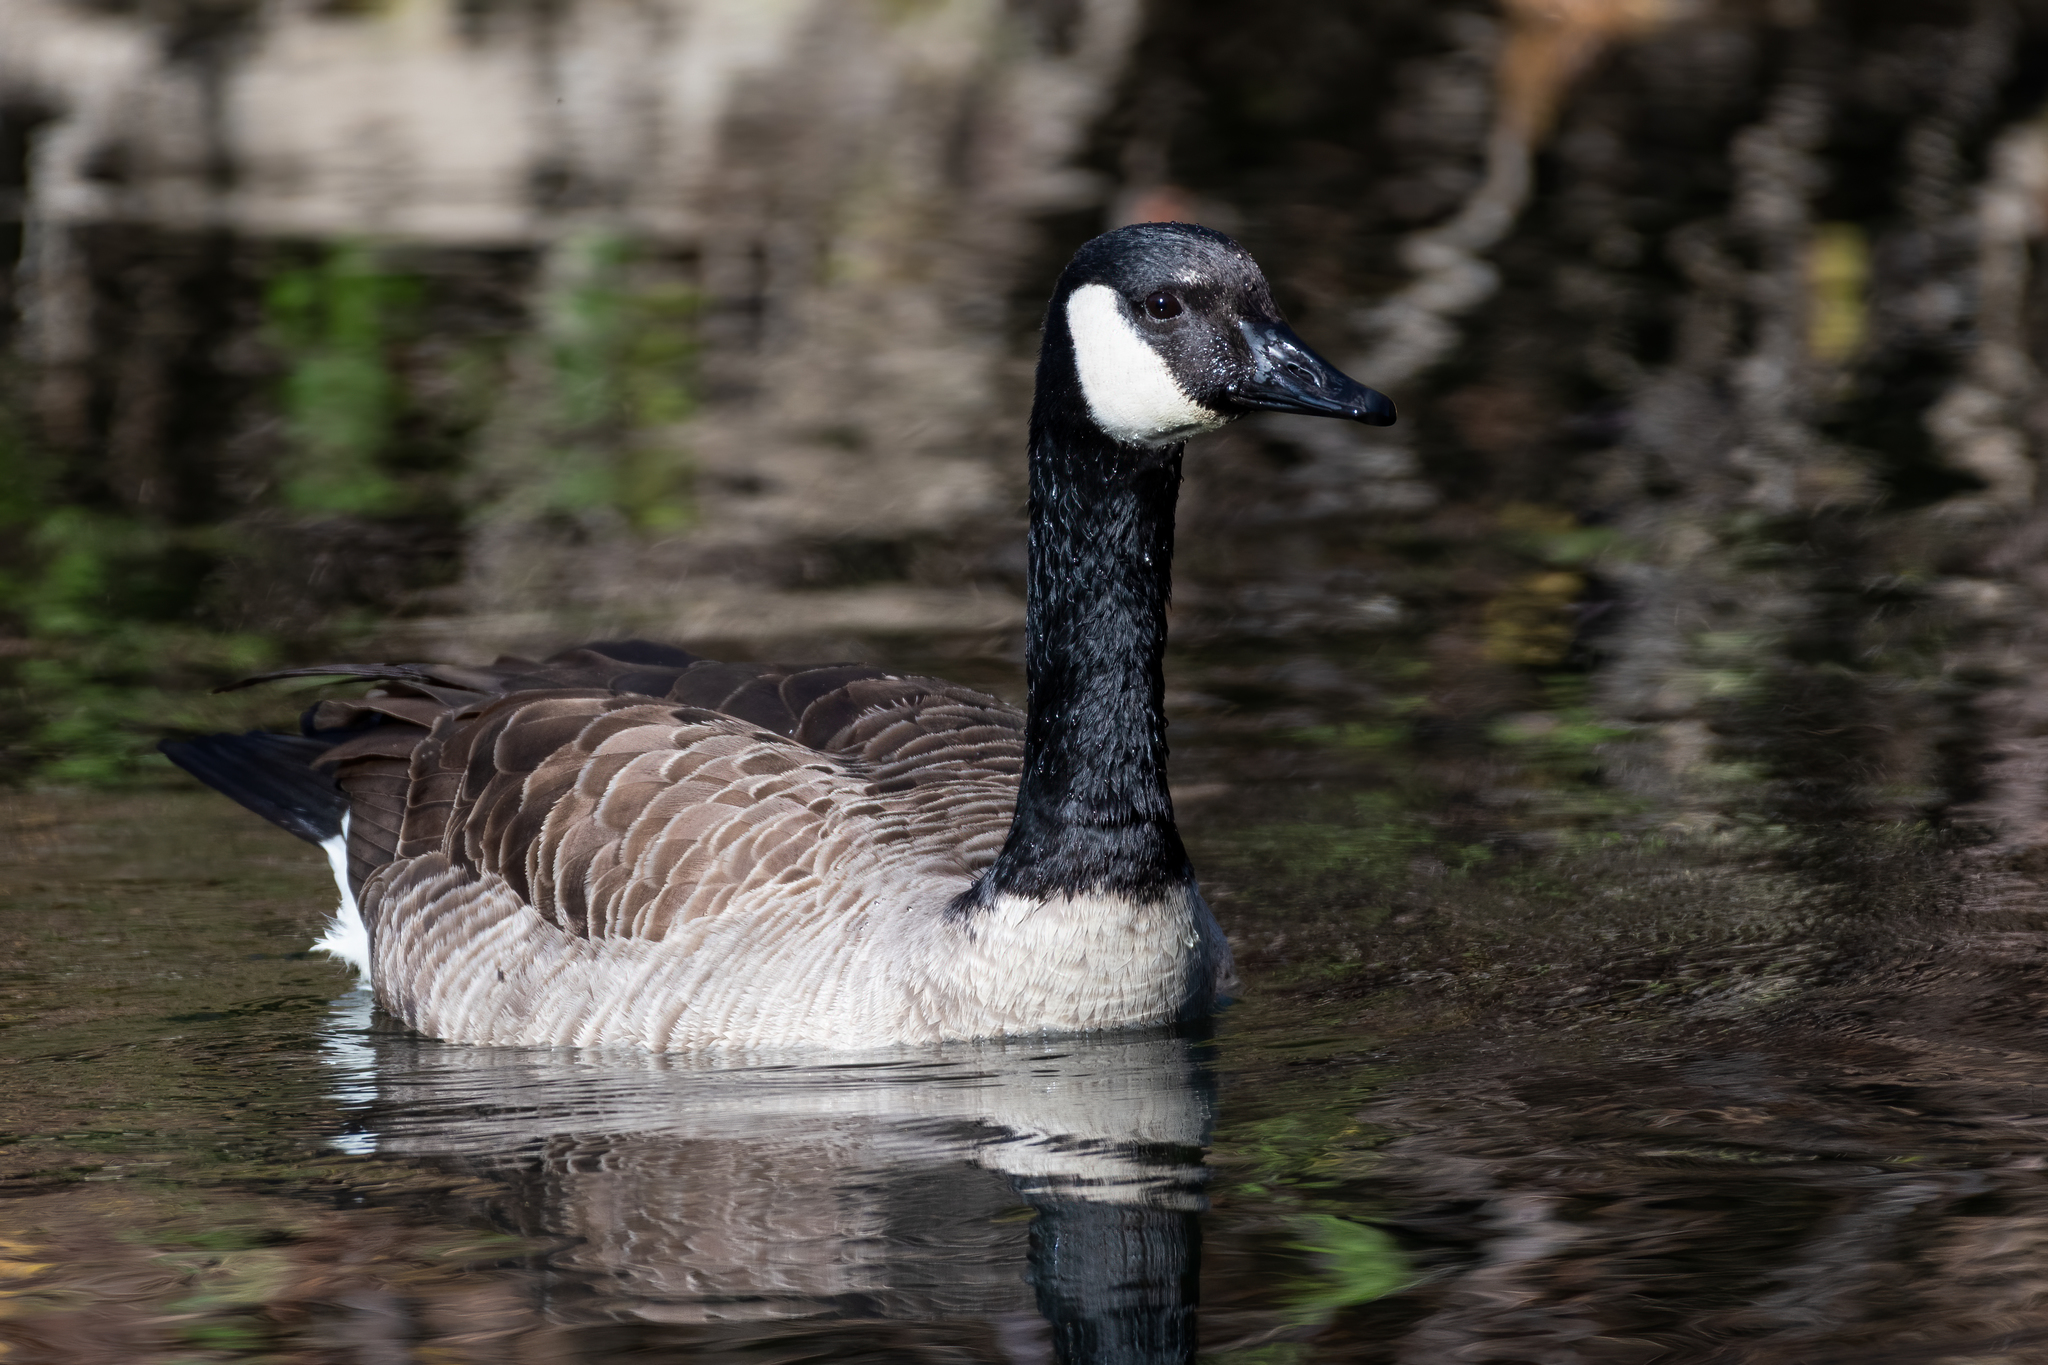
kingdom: Animalia
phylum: Chordata
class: Aves
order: Anseriformes
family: Anatidae
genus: Branta
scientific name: Branta canadensis
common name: Canada goose
